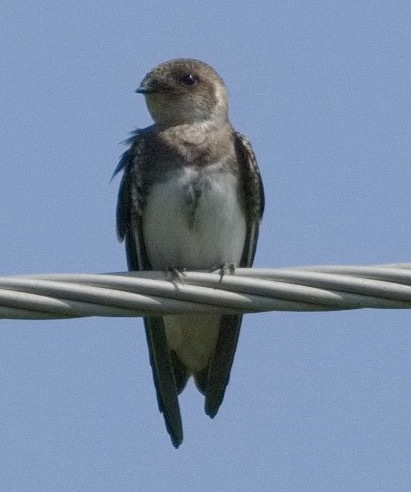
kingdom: Animalia
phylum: Chordata
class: Aves
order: Passeriformes
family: Hirundinidae
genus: Riparia
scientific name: Riparia riparia
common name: Sand martin
